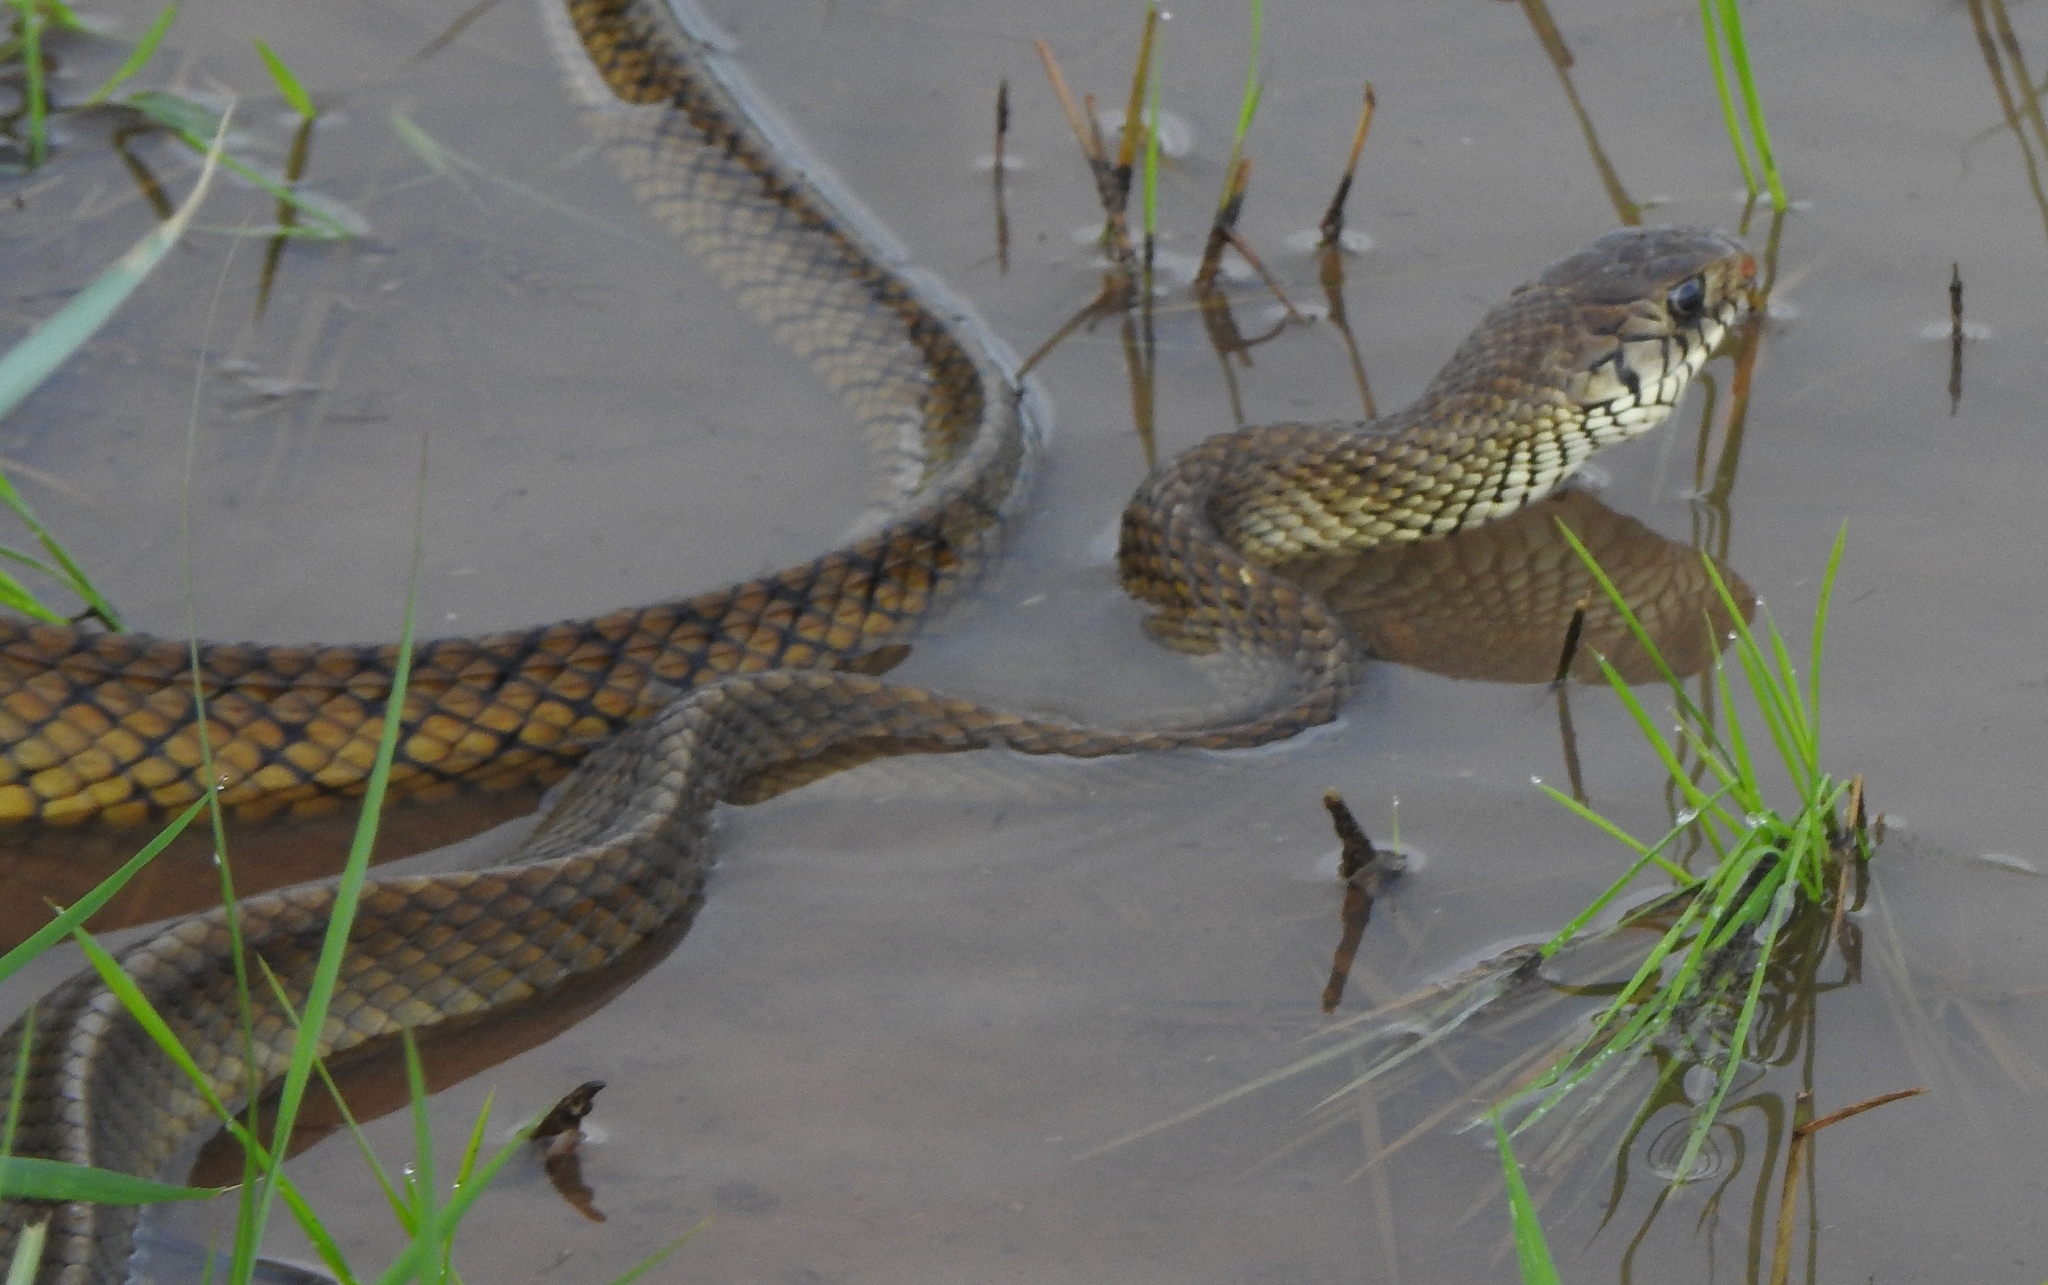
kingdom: Animalia
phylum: Chordata
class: Squamata
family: Colubridae
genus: Ptyas
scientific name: Ptyas mucosa
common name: Oriental ratsnake
